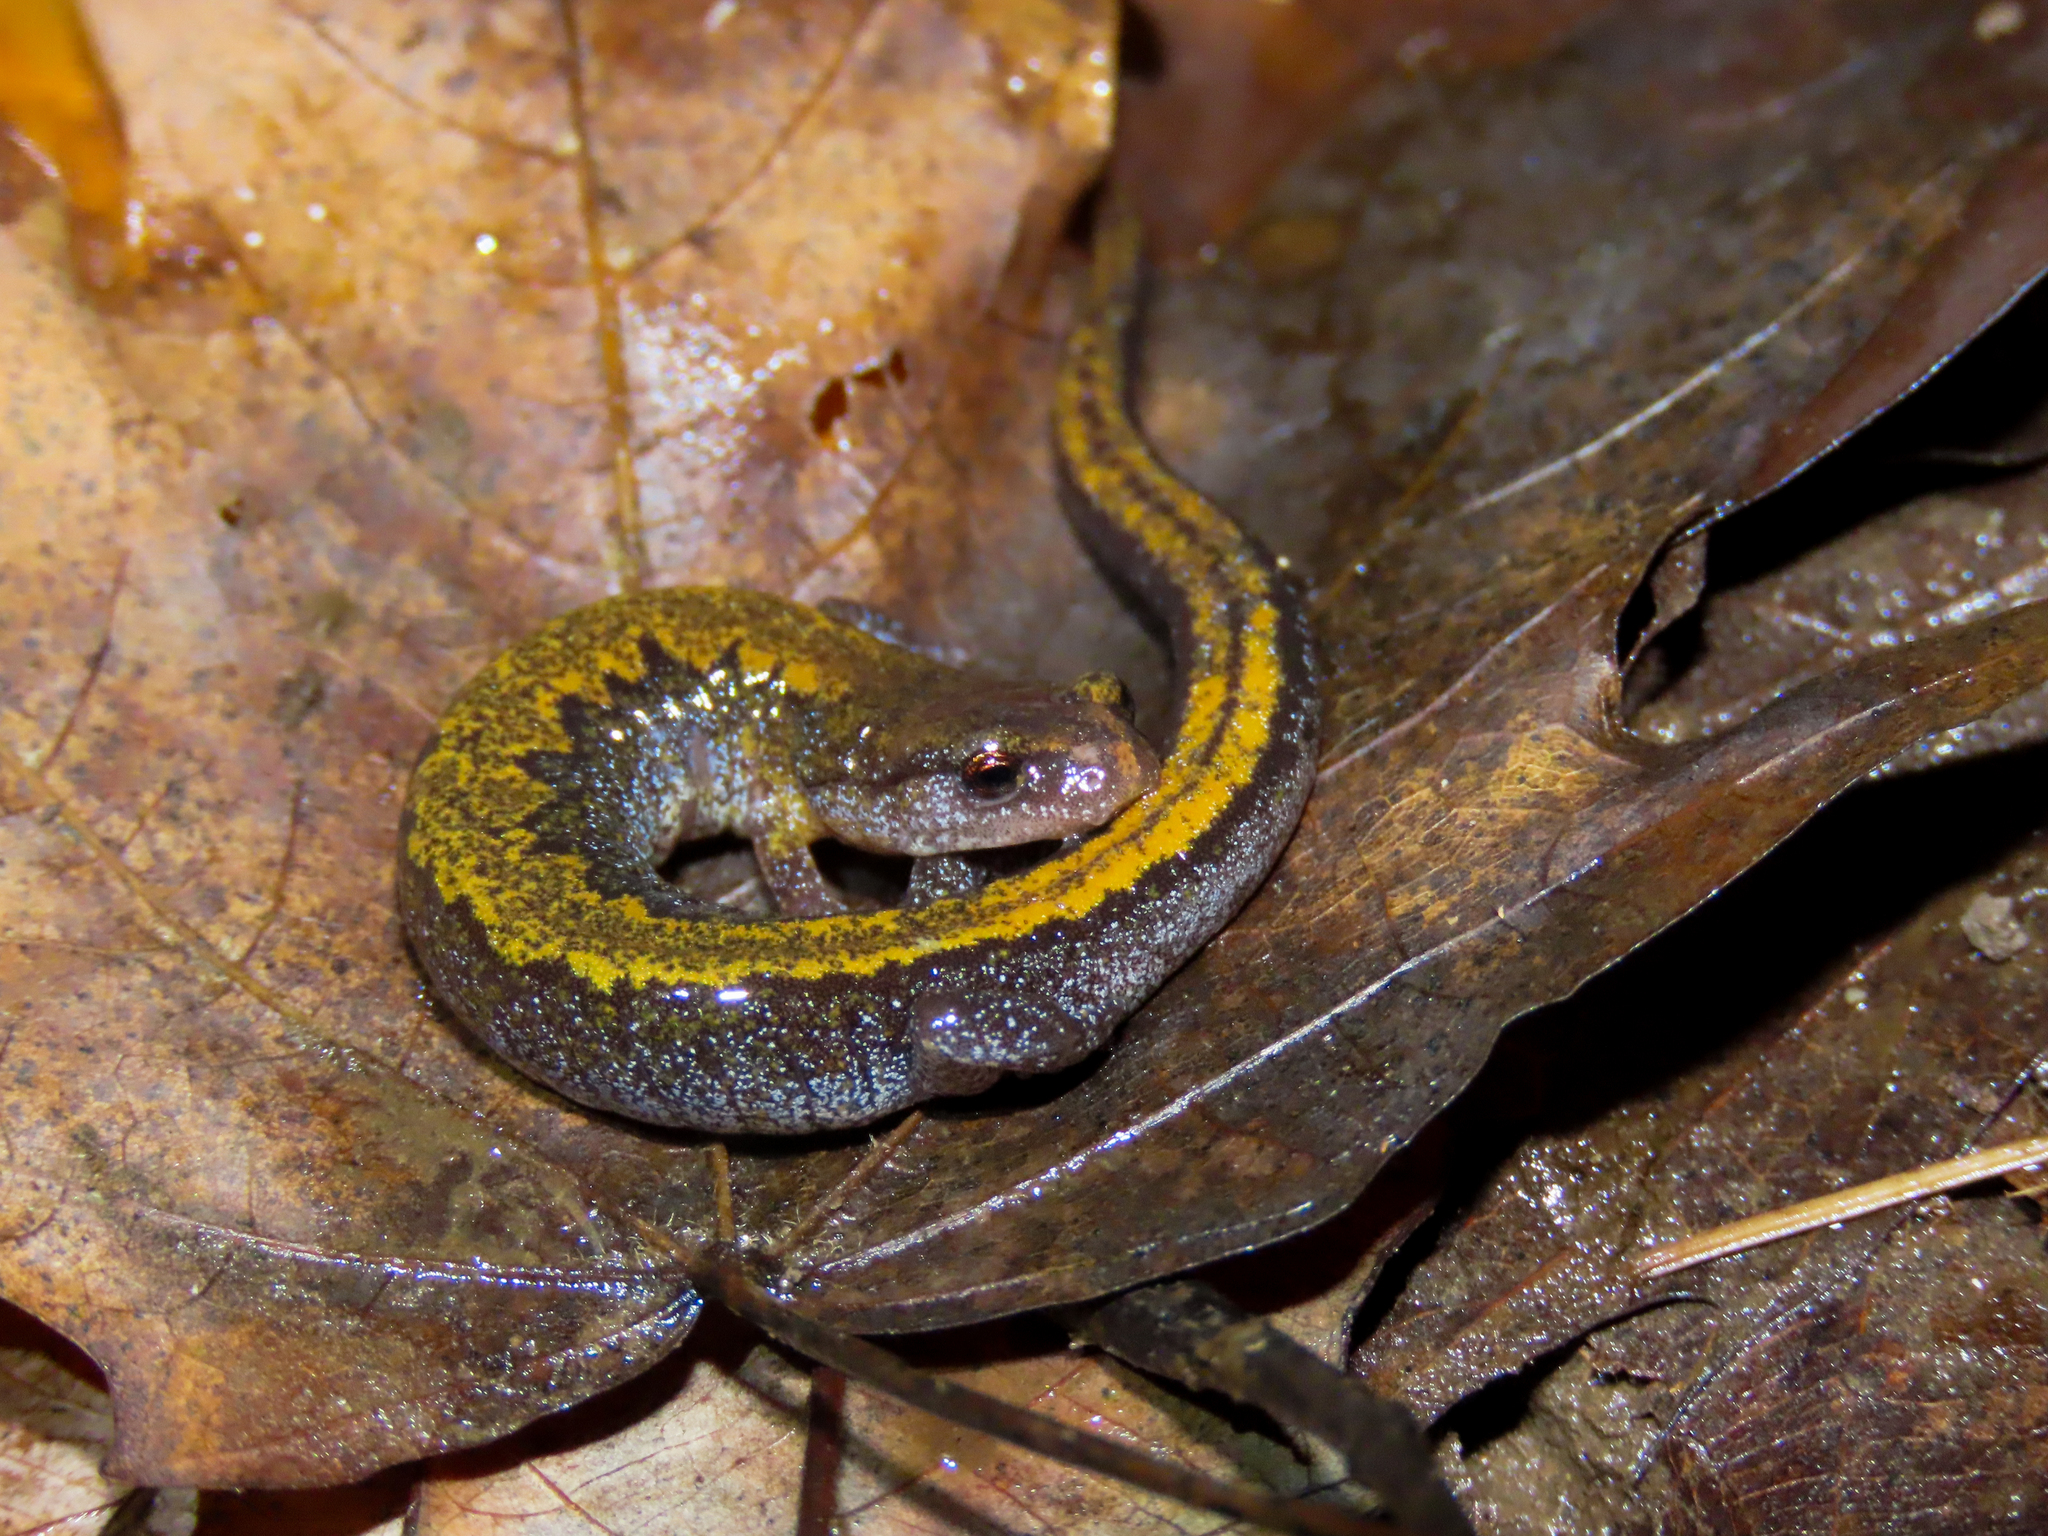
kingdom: Animalia
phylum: Chordata
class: Amphibia
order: Caudata
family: Plethodontidae
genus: Plethodon
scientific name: Plethodon dorsalis
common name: Northern zigzag salamander
